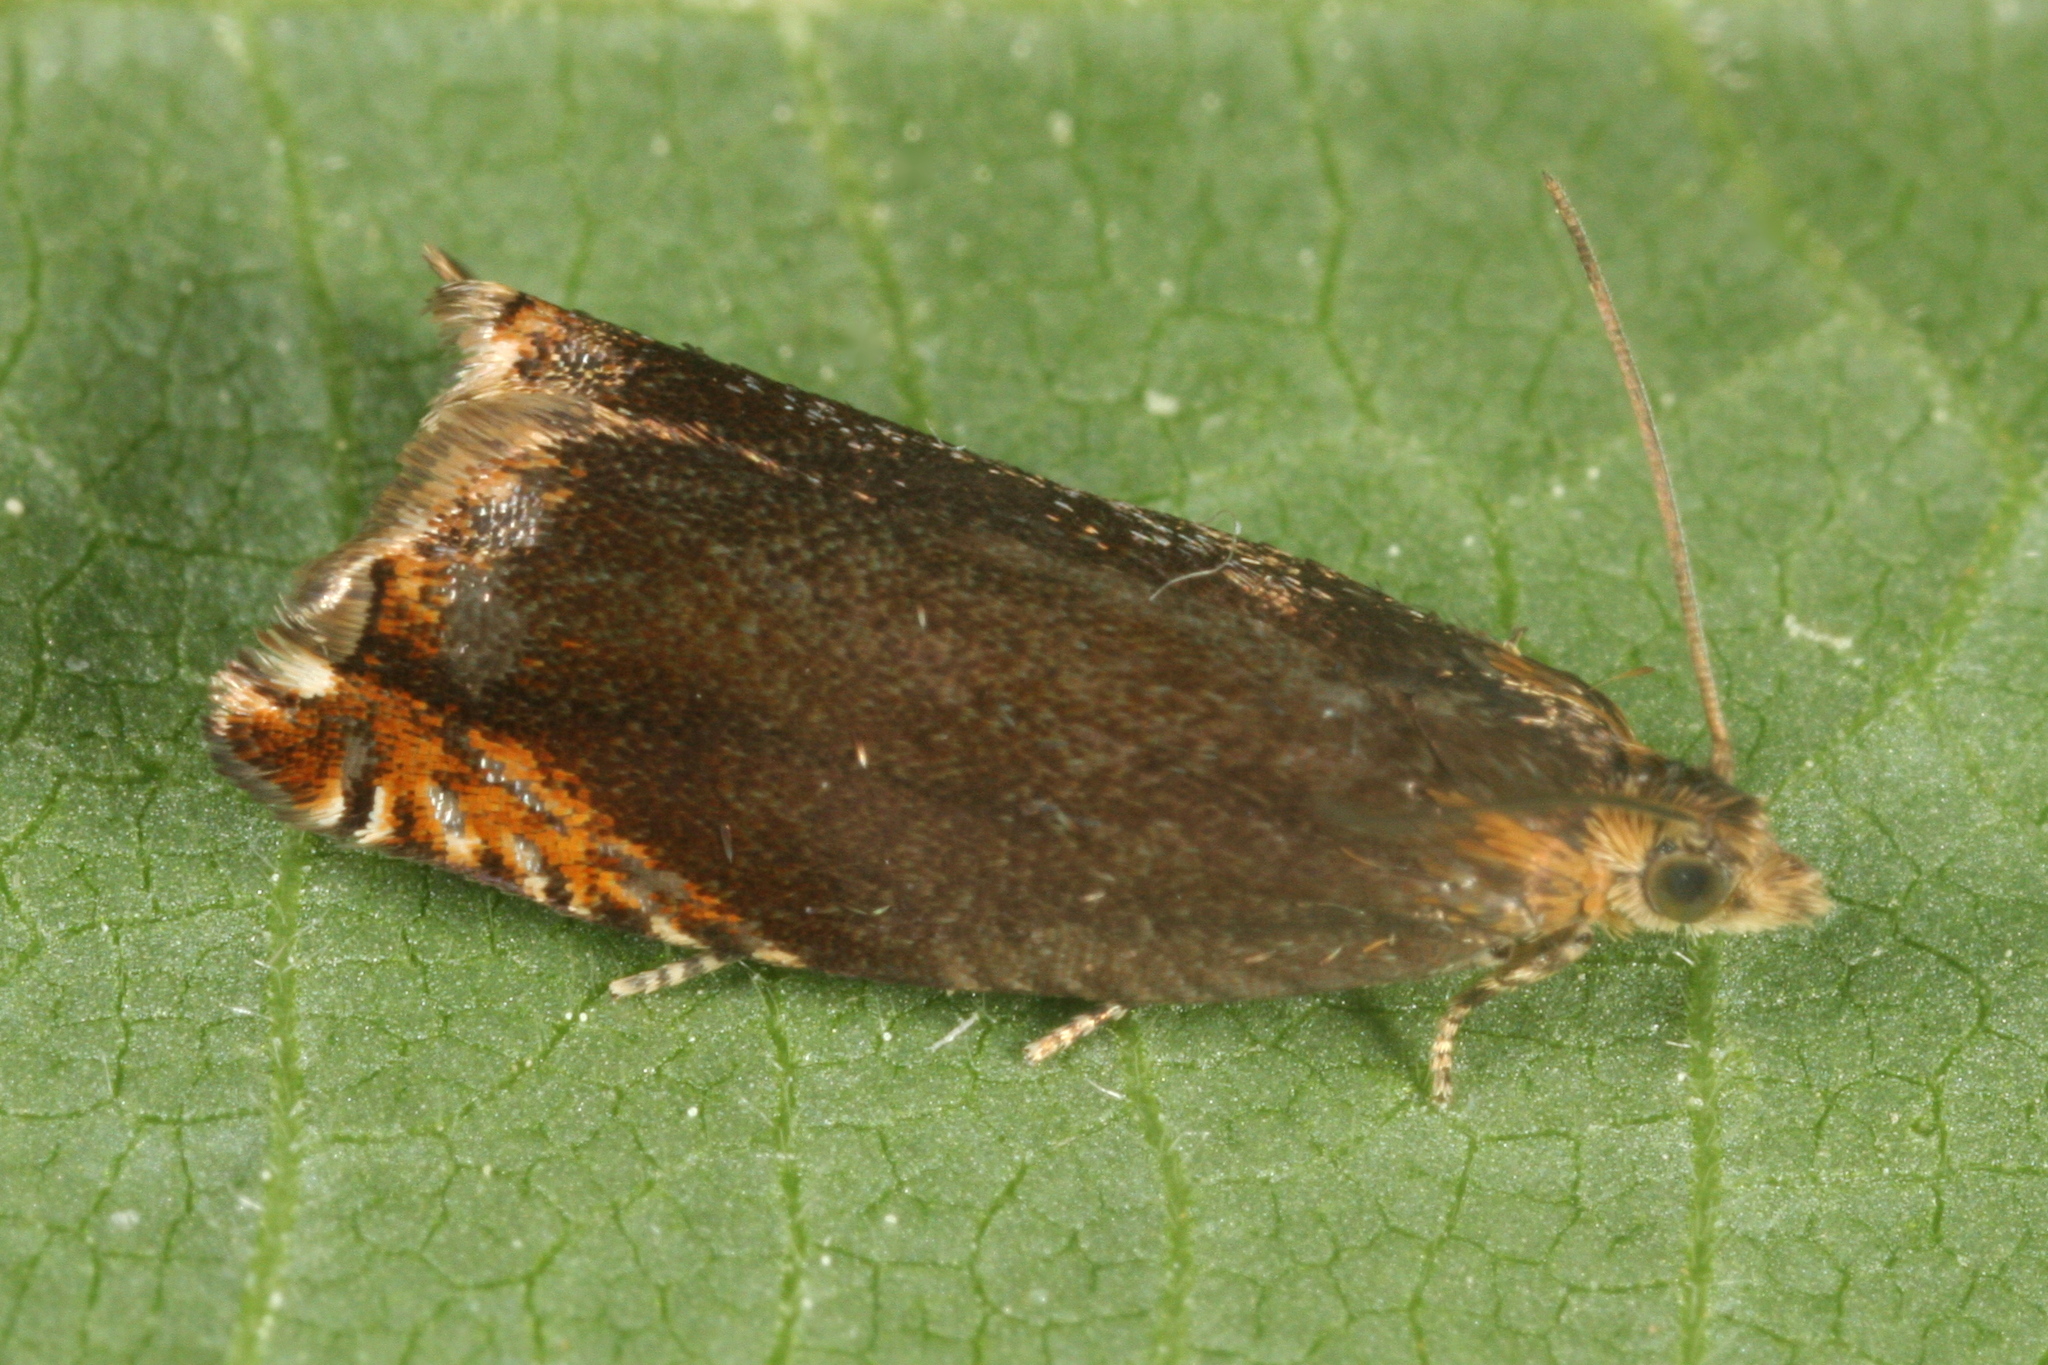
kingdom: Animalia
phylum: Arthropoda
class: Insecta
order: Lepidoptera
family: Tortricidae
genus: Ancylis
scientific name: Ancylis upupana
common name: Dark roller
